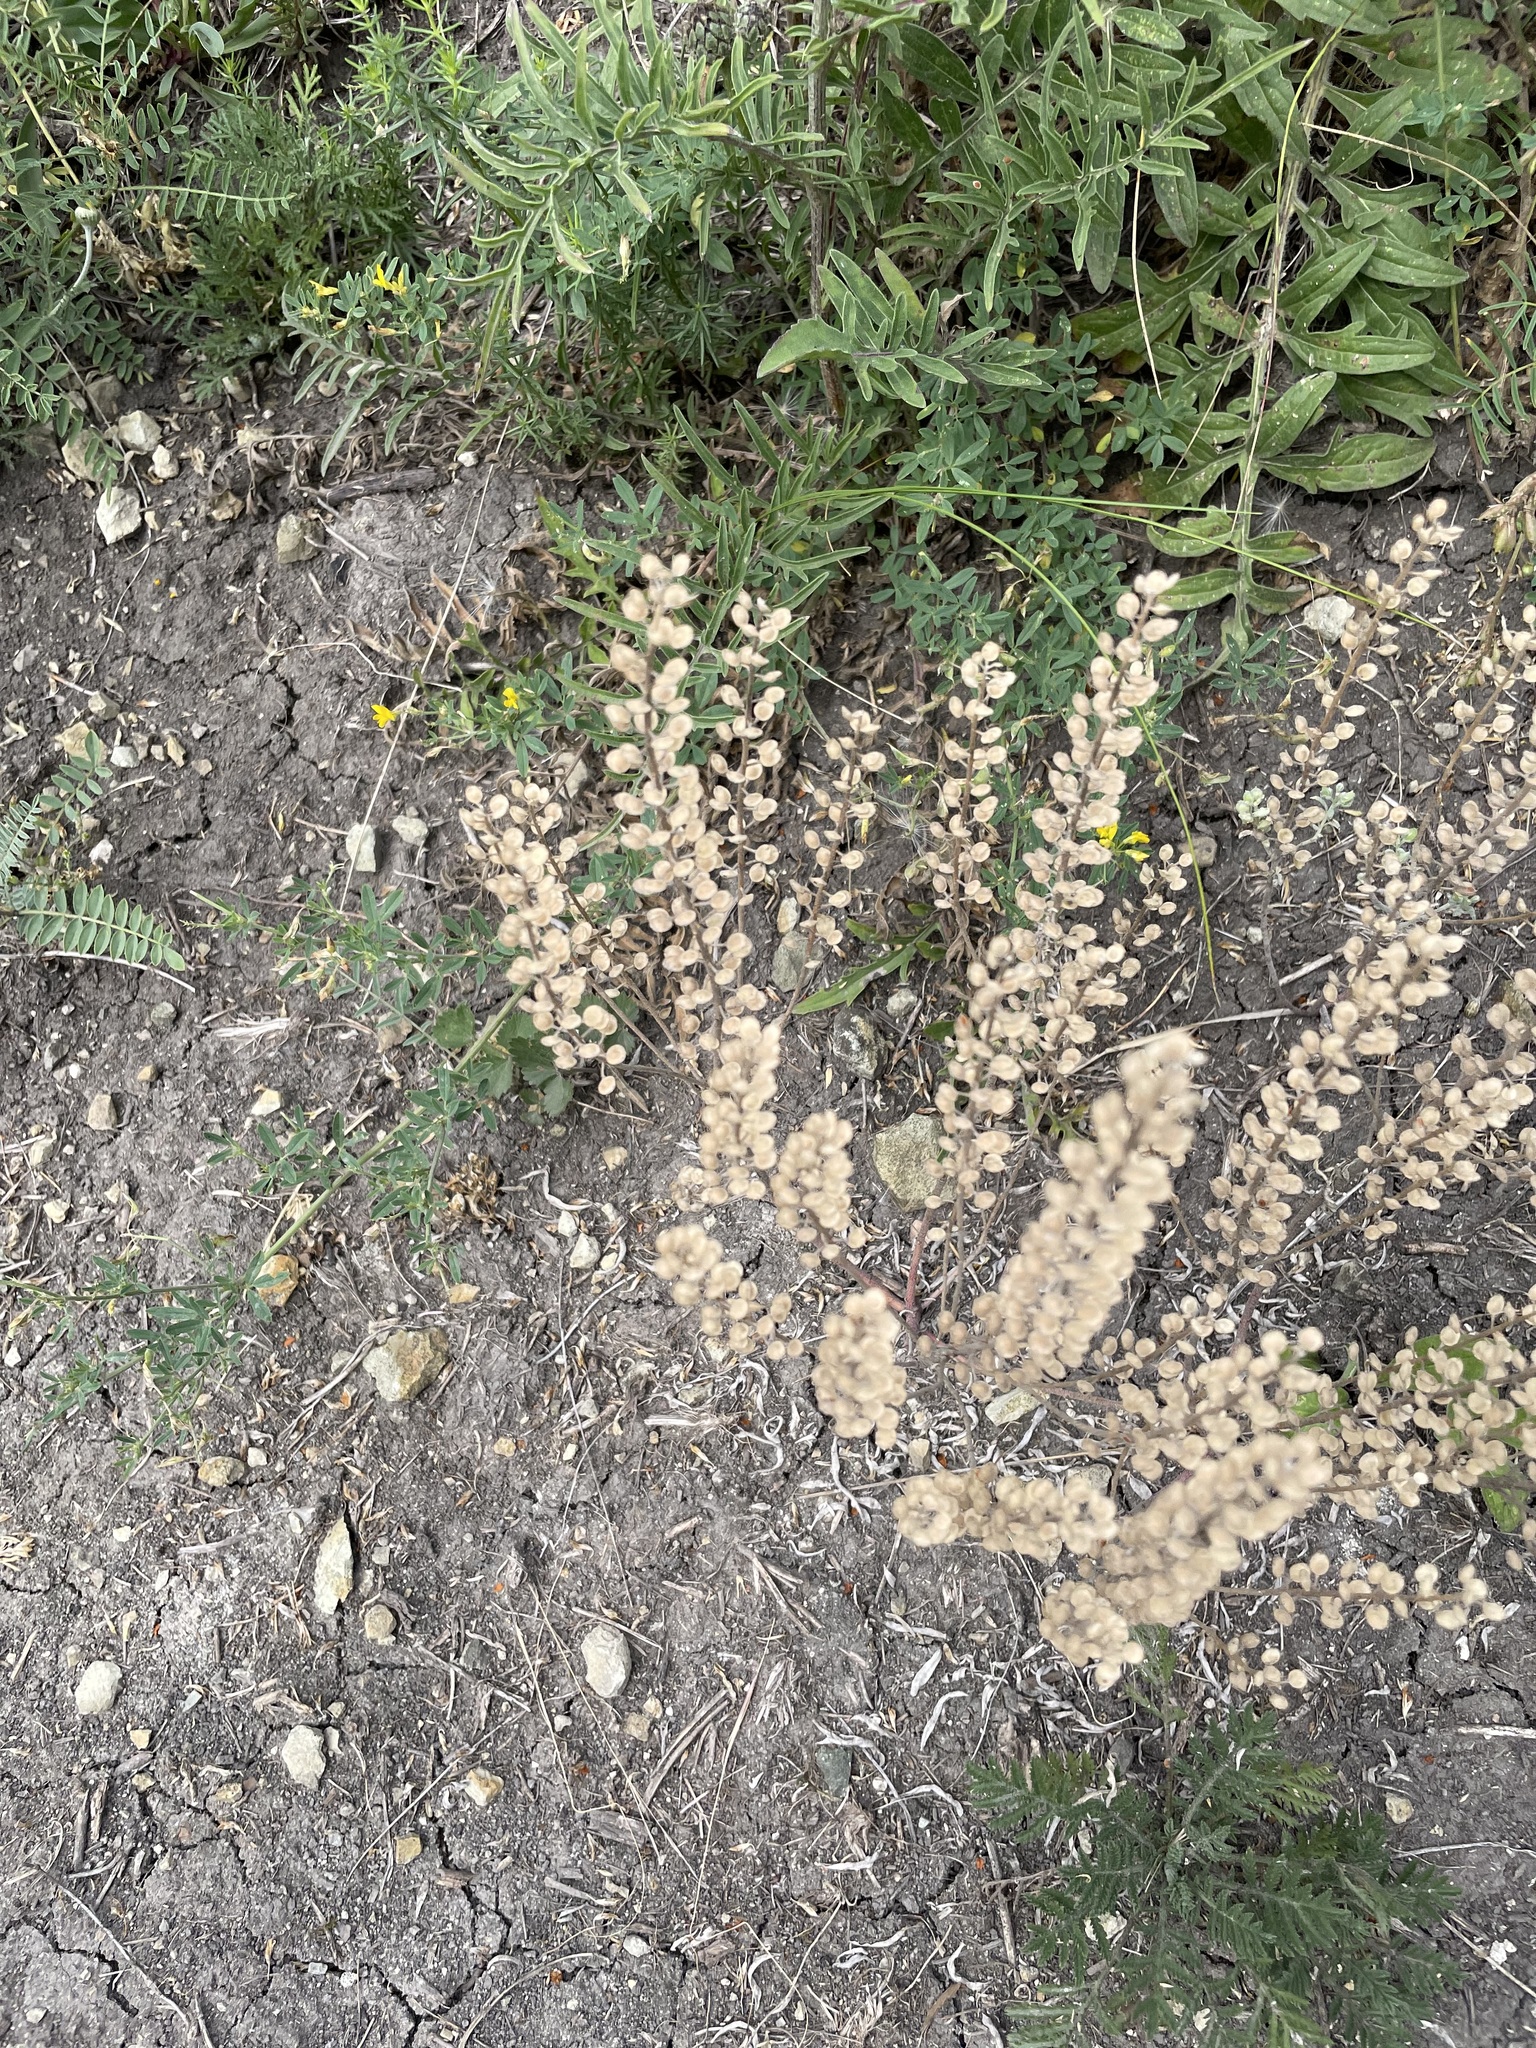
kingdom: Plantae
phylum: Tracheophyta
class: Magnoliopsida
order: Brassicales
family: Brassicaceae
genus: Alyssum
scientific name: Alyssum turkestanicum
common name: Desert alyssum
